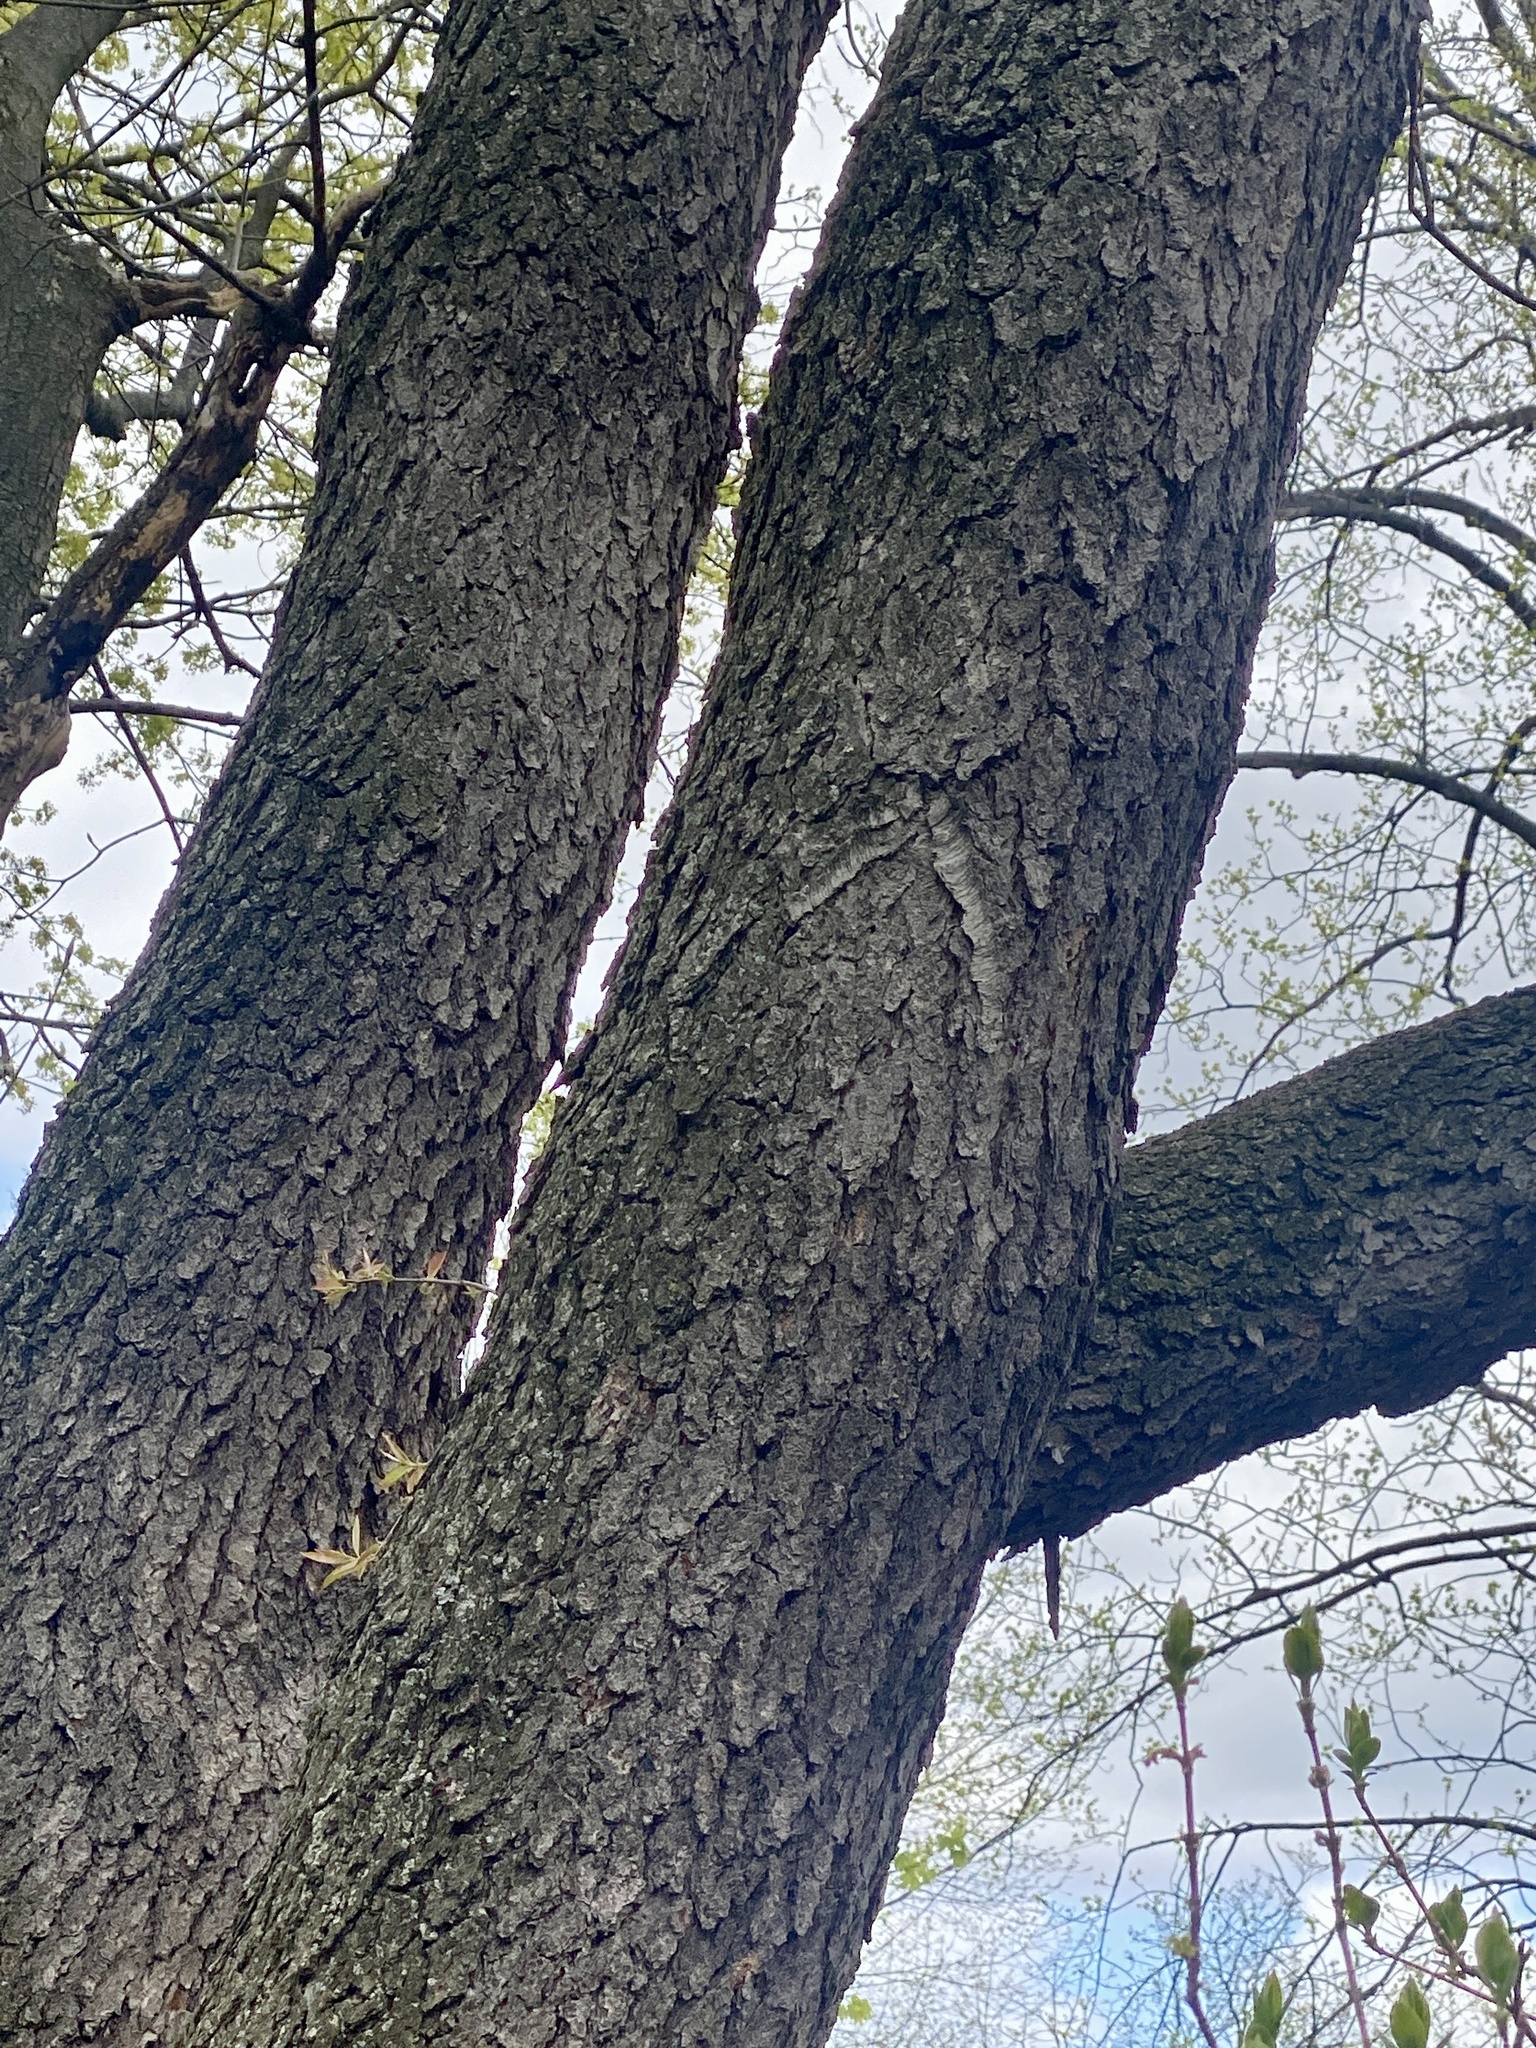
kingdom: Plantae
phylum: Tracheophyta
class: Magnoliopsida
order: Rosales
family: Rosaceae
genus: Prunus
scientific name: Prunus serotina
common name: Black cherry
